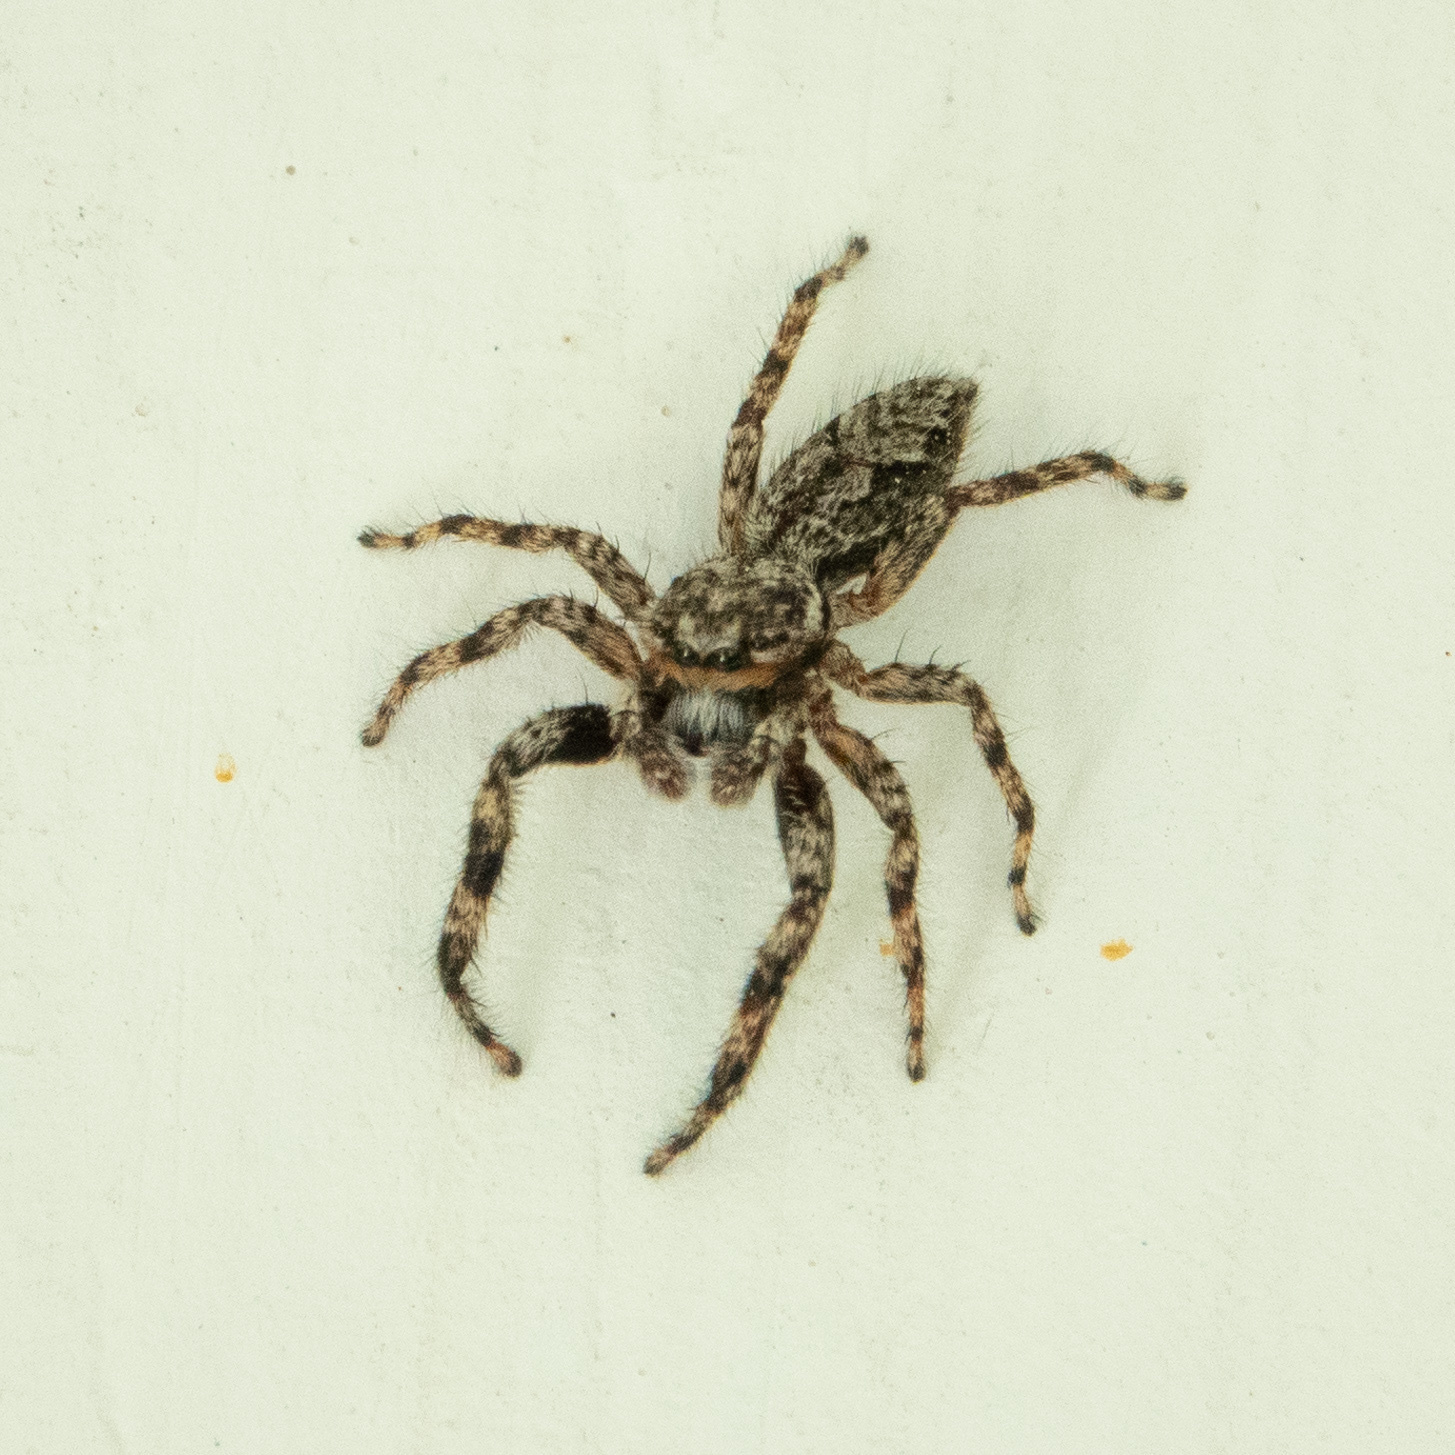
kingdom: Animalia
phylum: Arthropoda
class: Arachnida
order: Araneae
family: Salticidae
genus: Platycryptus
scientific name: Platycryptus undatus
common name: Tan jumping spider
